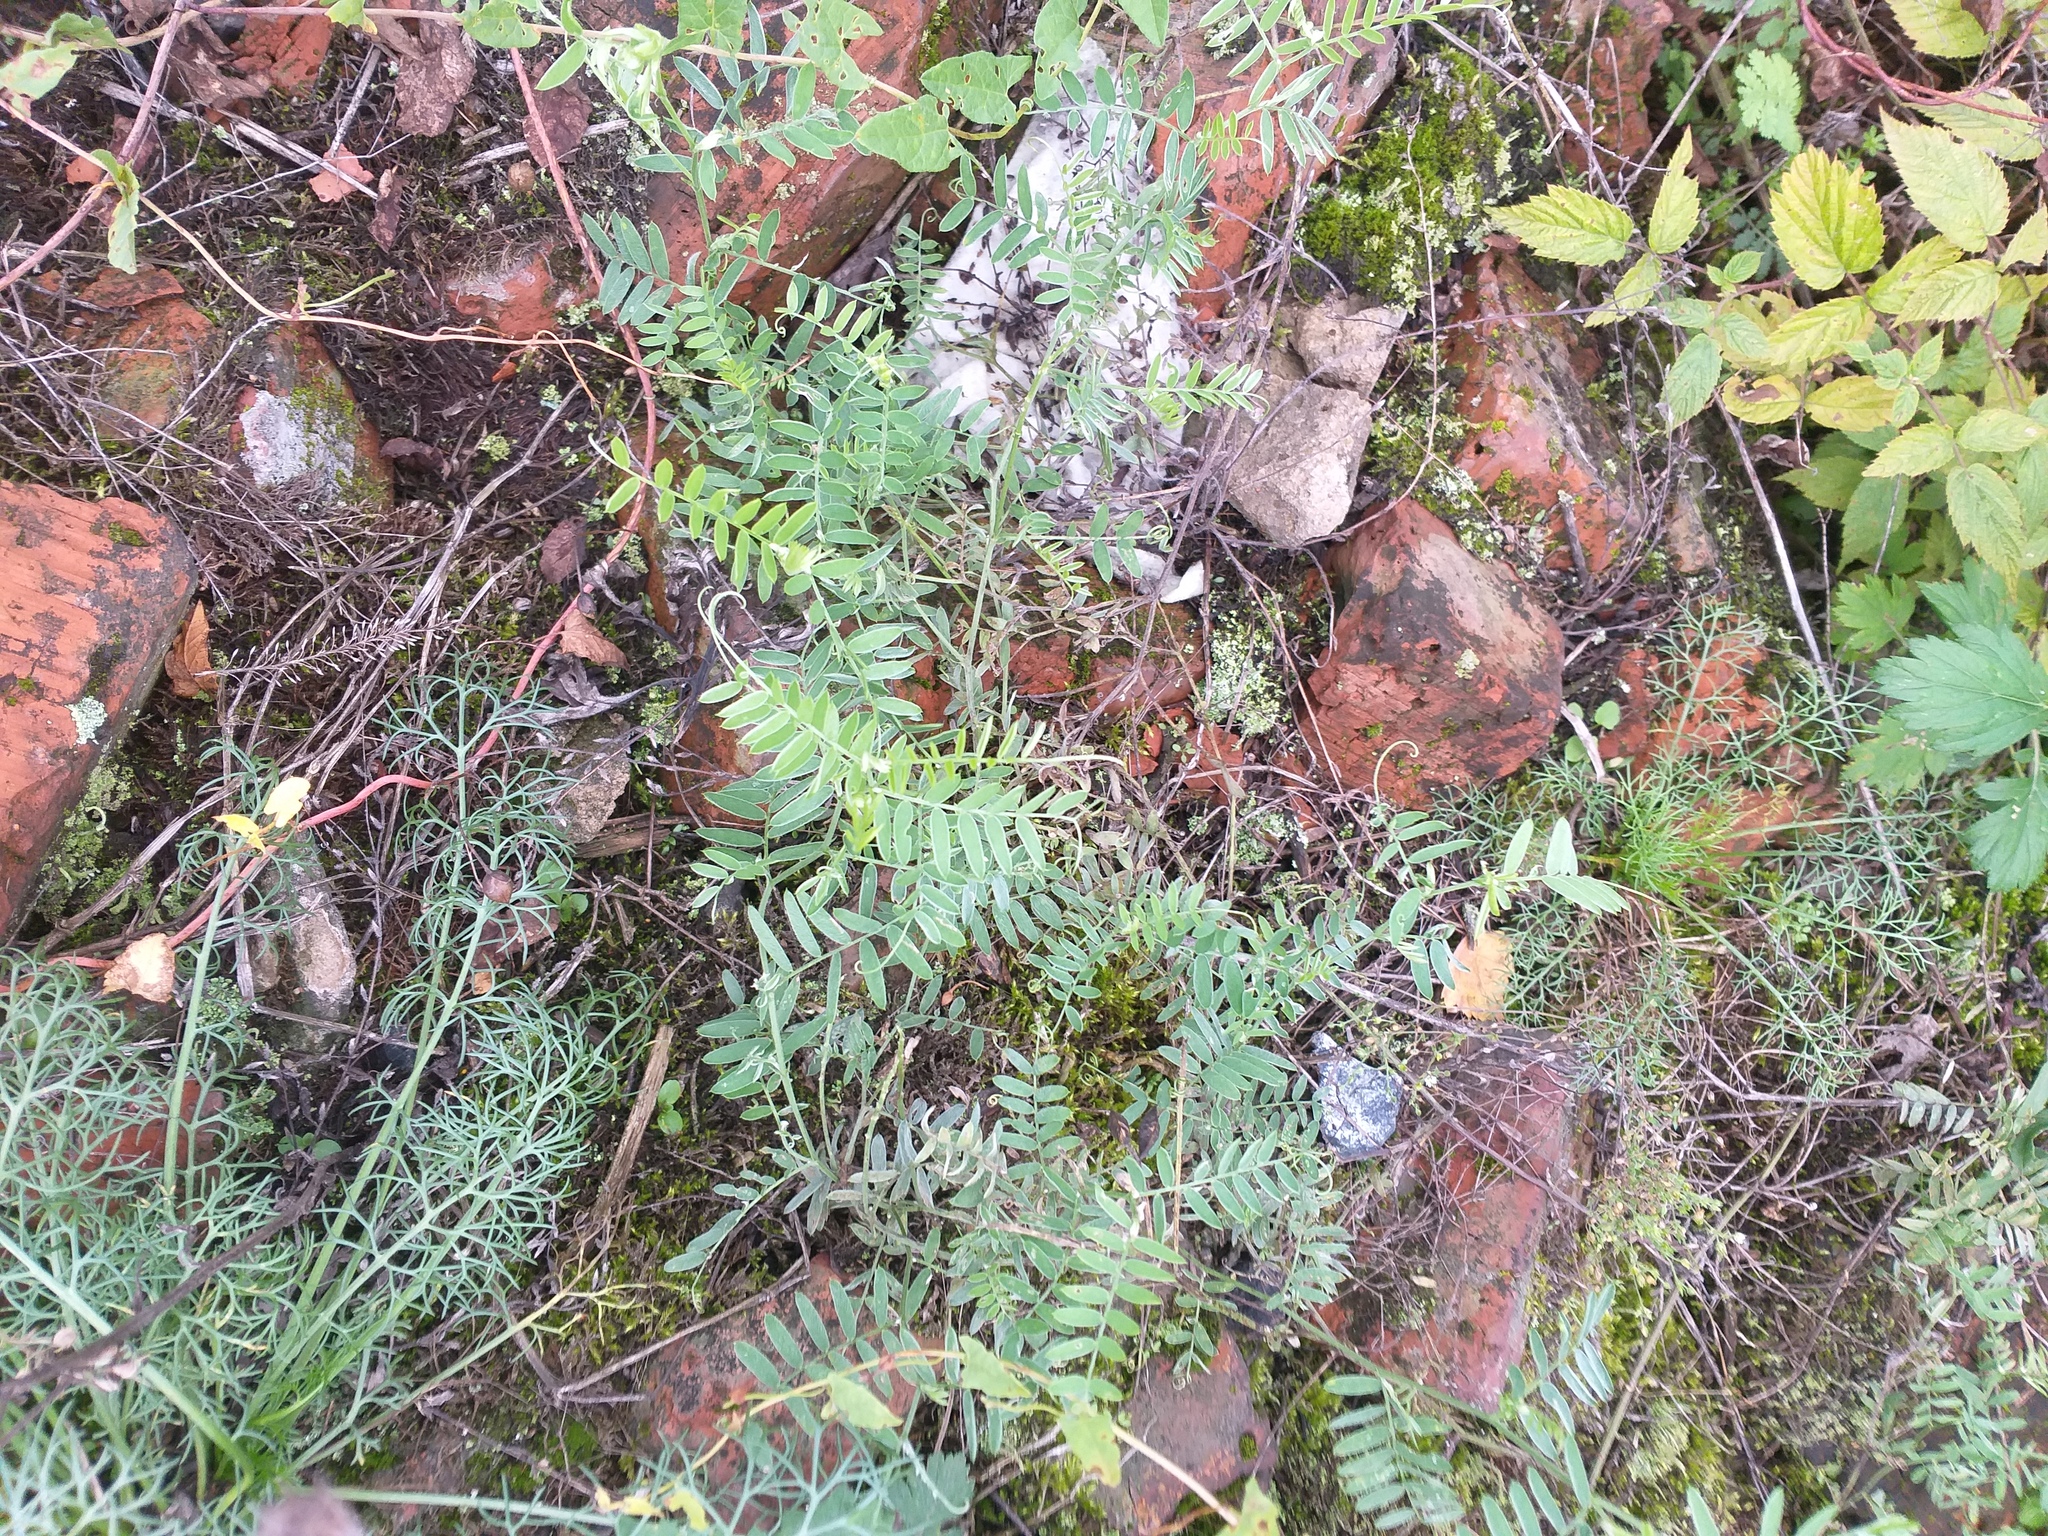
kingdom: Plantae
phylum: Tracheophyta
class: Magnoliopsida
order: Fabales
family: Fabaceae
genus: Vicia
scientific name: Vicia cracca
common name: Bird vetch
